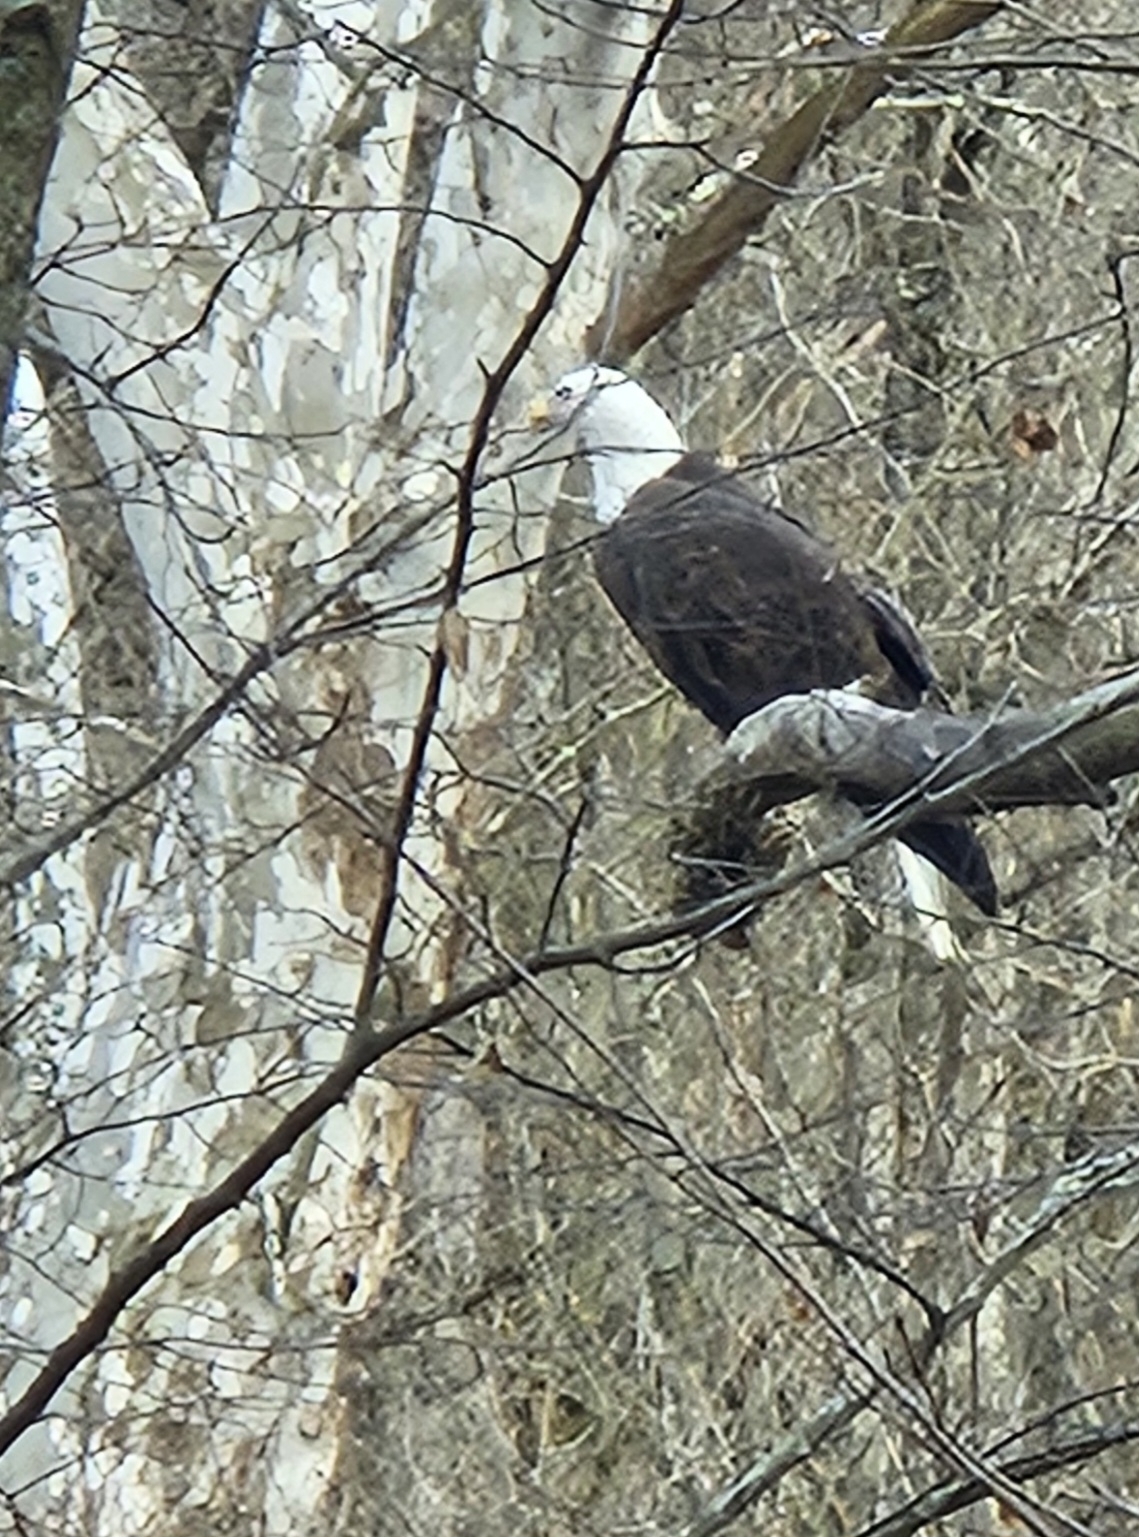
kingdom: Animalia
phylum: Chordata
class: Aves
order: Accipitriformes
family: Accipitridae
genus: Haliaeetus
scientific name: Haliaeetus leucocephalus
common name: Bald eagle
